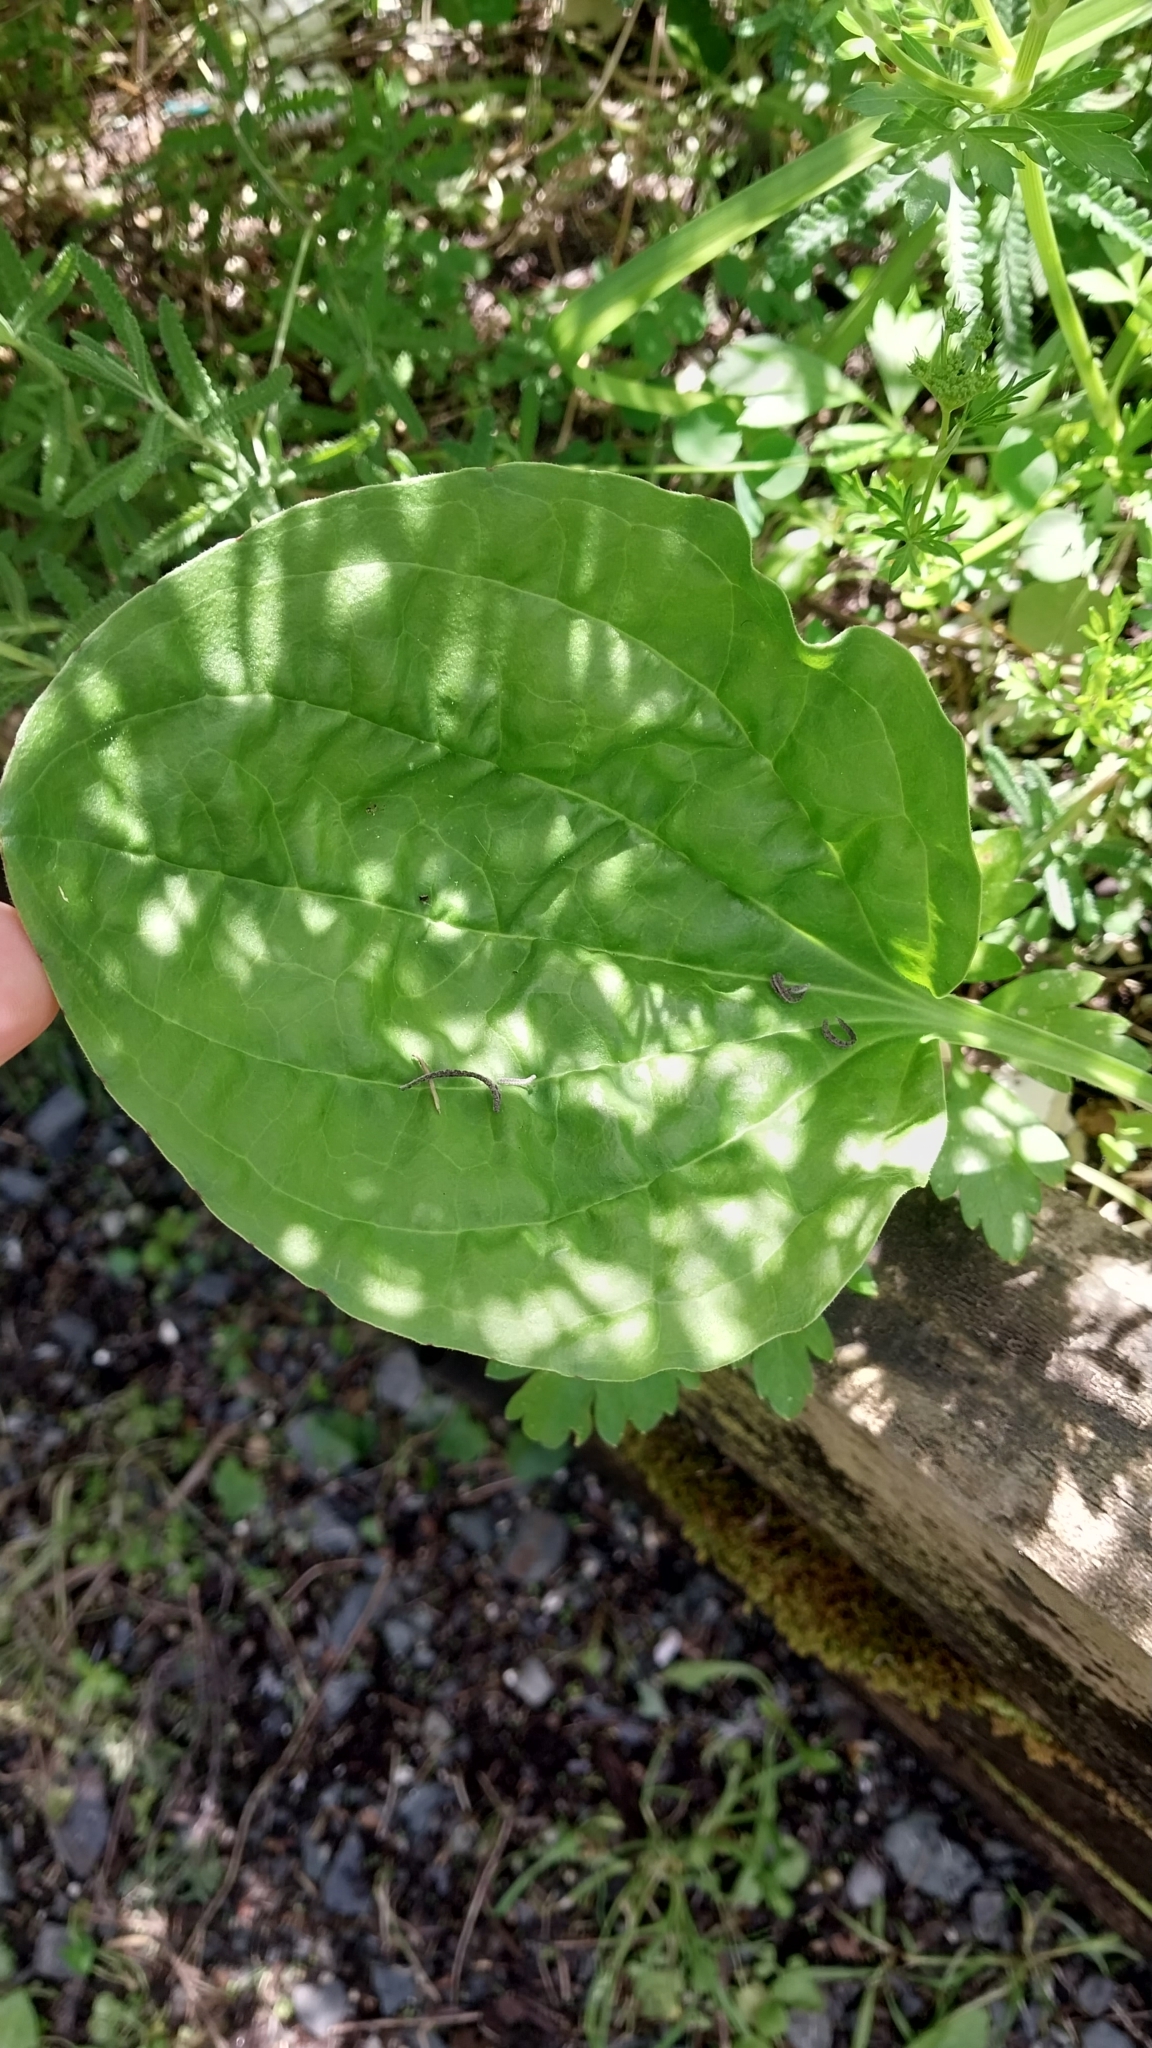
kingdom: Plantae
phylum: Tracheophyta
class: Magnoliopsida
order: Lamiales
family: Plantaginaceae
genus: Plantago
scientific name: Plantago major
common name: Common plantain
